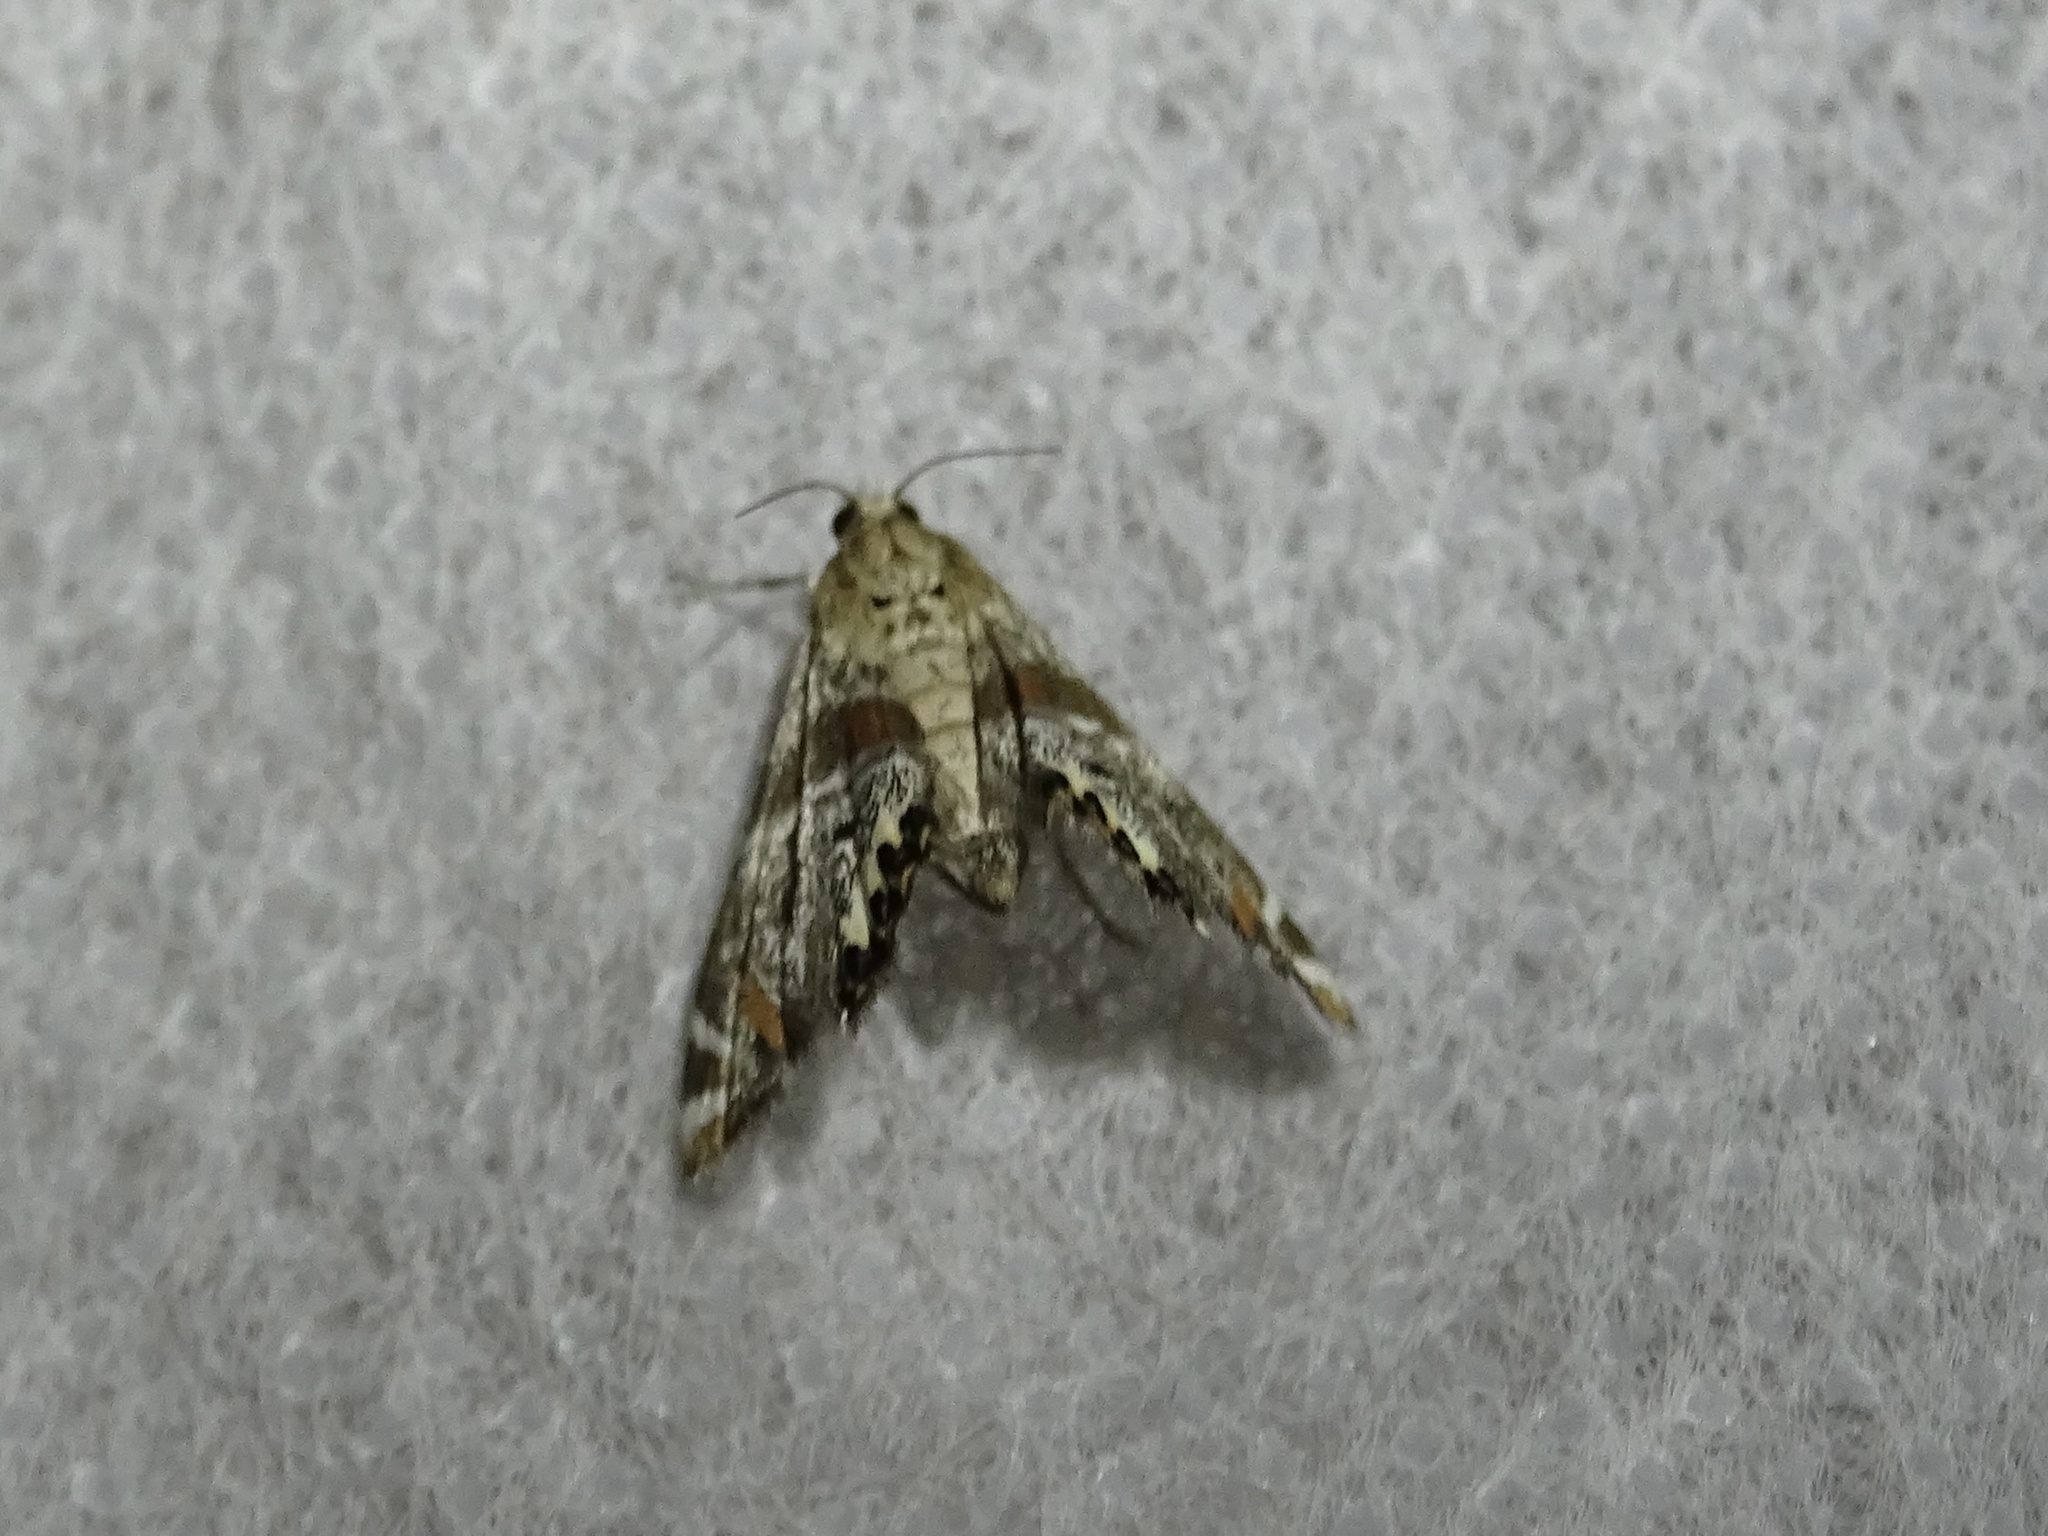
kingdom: Animalia
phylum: Arthropoda
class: Insecta
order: Lepidoptera
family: Crambidae
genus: Petrophila
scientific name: Petrophila jaliscalis
